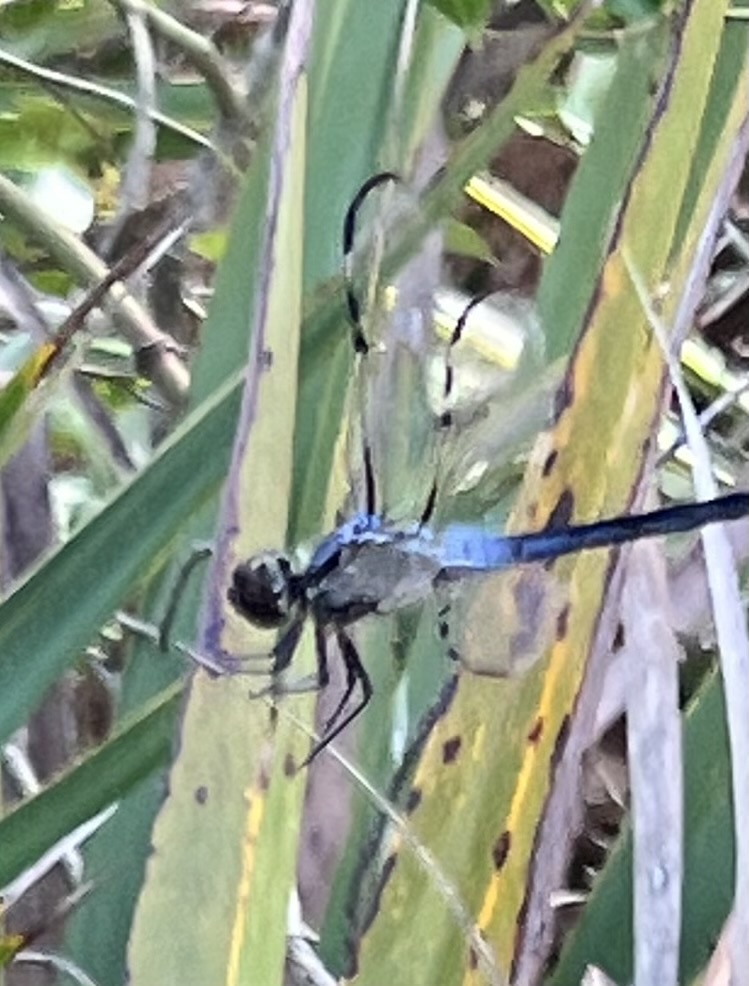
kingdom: Animalia
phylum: Arthropoda
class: Insecta
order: Odonata
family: Libellulidae
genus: Libellula
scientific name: Libellula axilena
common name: Bar-winged skimmer
